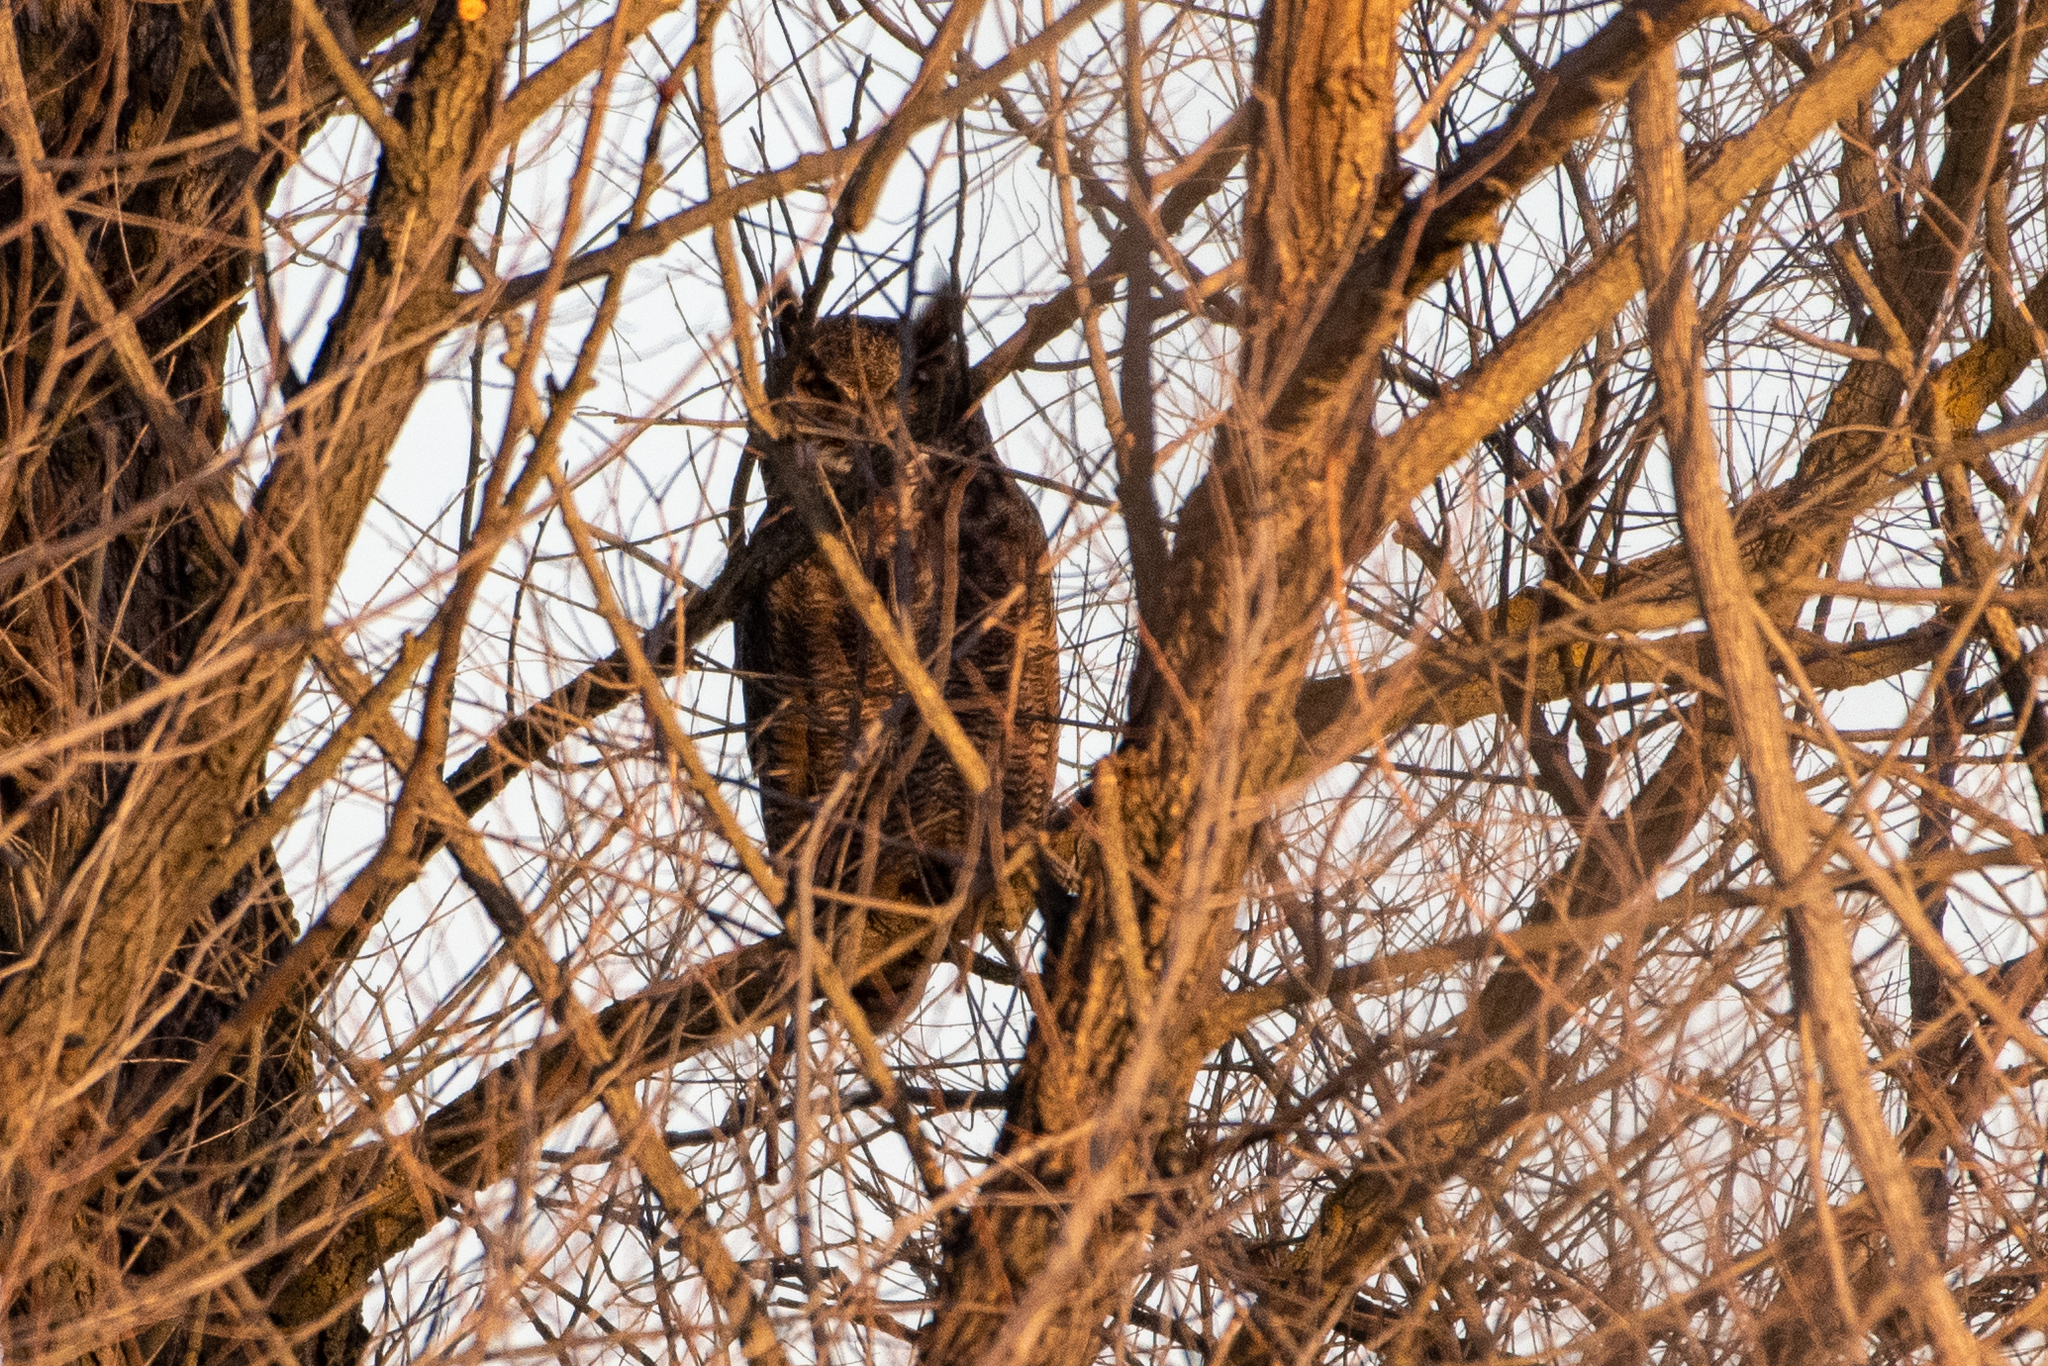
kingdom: Animalia
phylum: Chordata
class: Aves
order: Strigiformes
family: Strigidae
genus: Bubo
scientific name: Bubo virginianus
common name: Great horned owl
